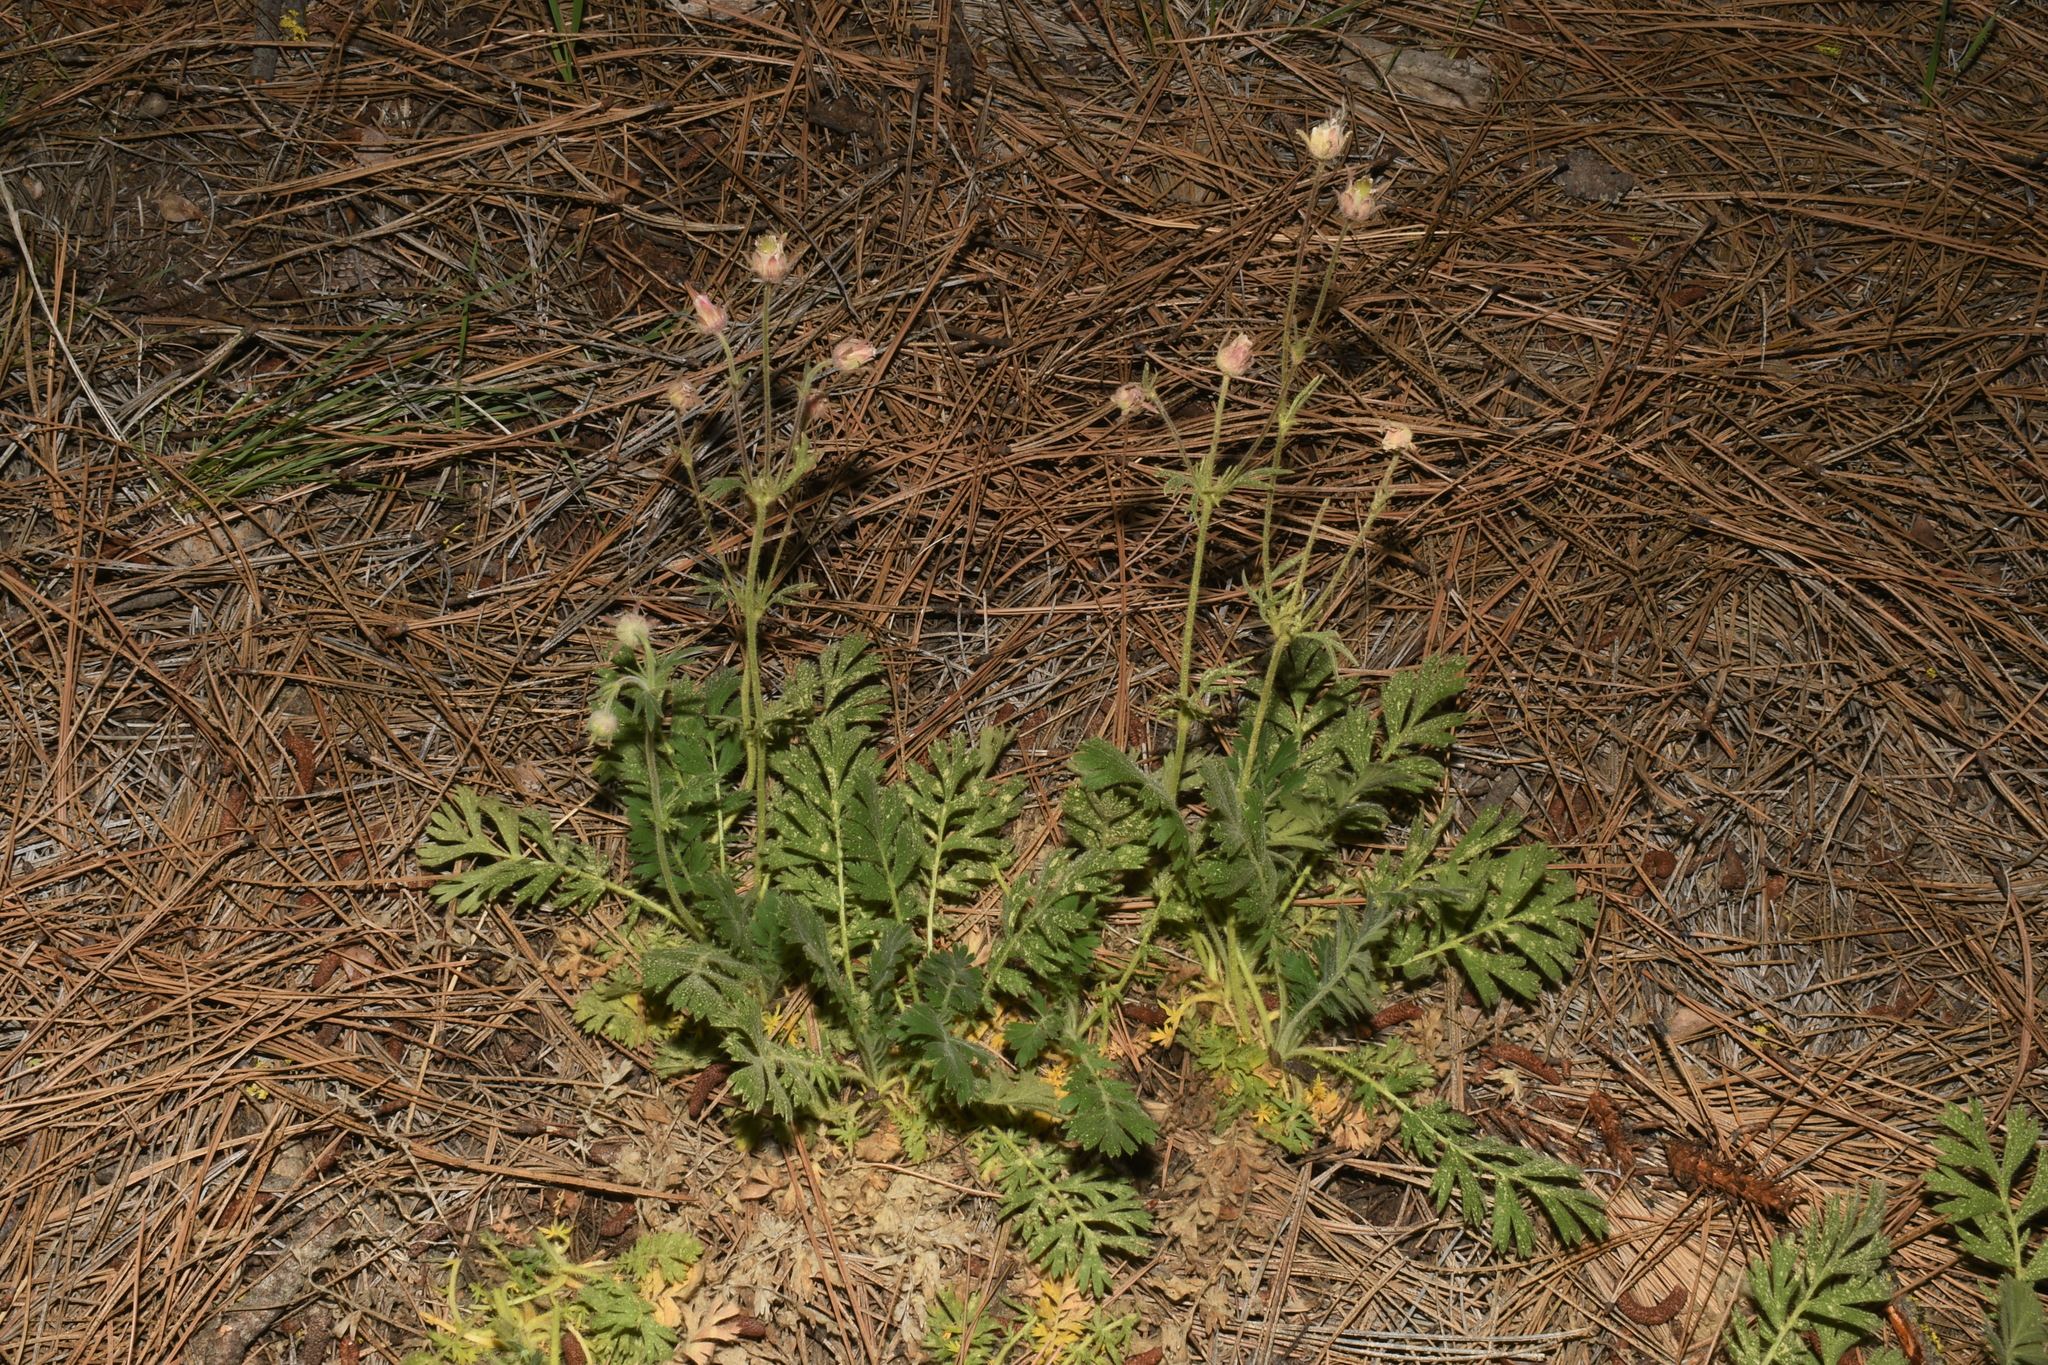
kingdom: Plantae
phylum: Tracheophyta
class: Magnoliopsida
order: Rosales
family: Rosaceae
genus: Geum
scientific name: Geum triflorum
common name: Old man's whiskers
